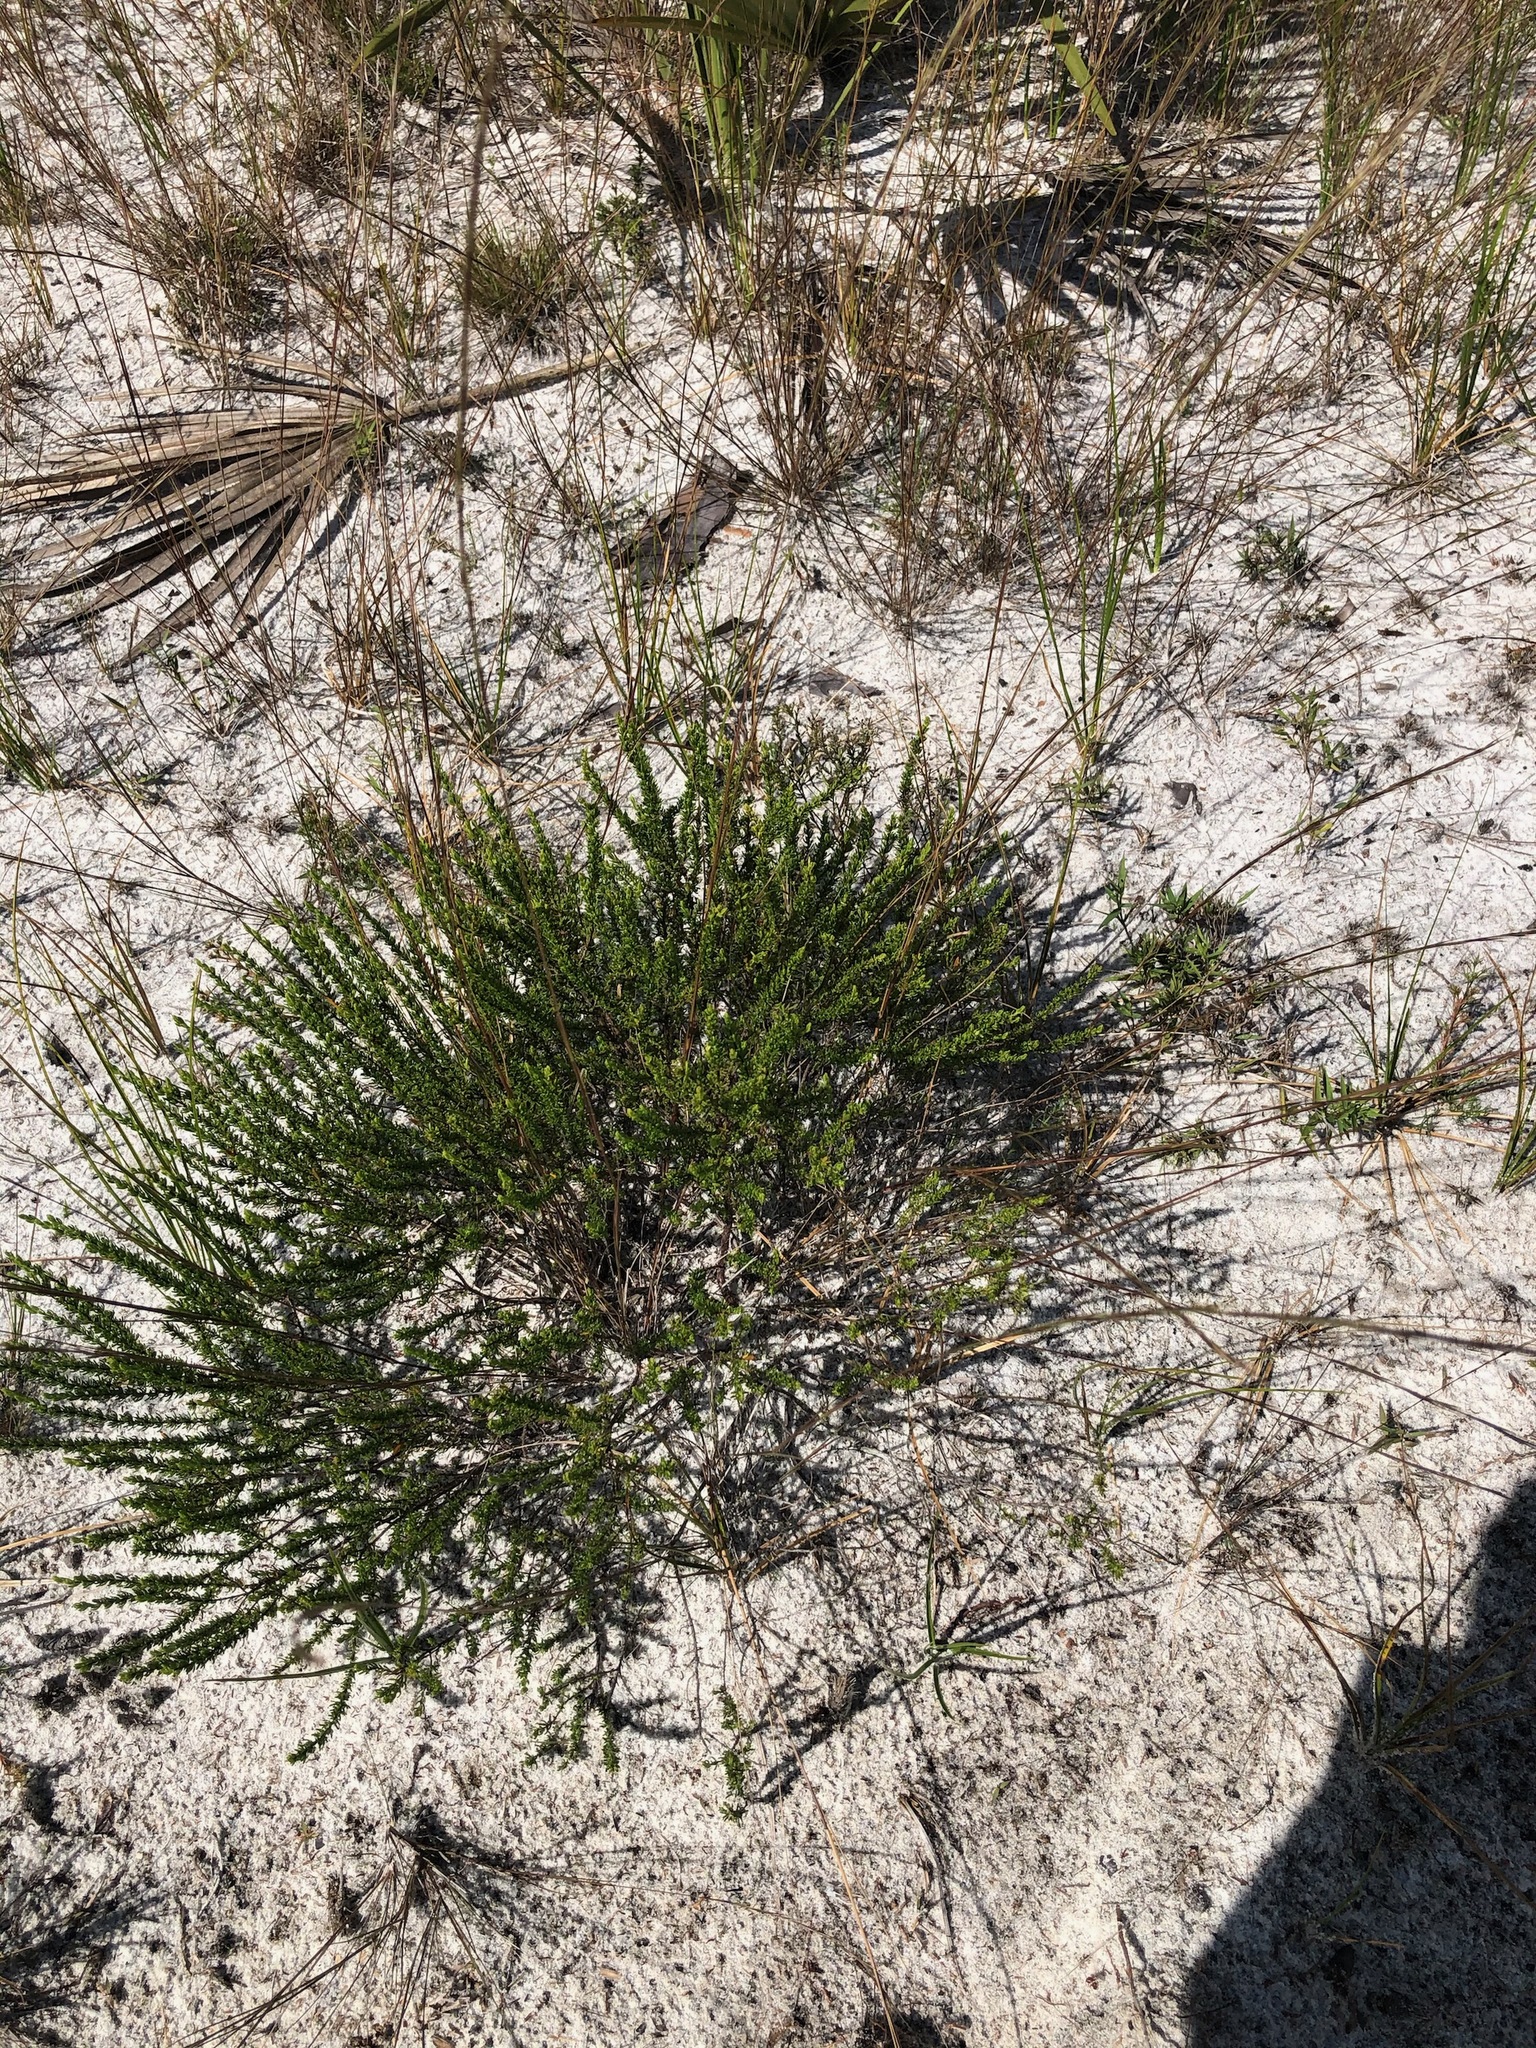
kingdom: Plantae
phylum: Tracheophyta
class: Magnoliopsida
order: Malpighiales
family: Hypericaceae
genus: Hypericum
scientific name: Hypericum tenuifolium
